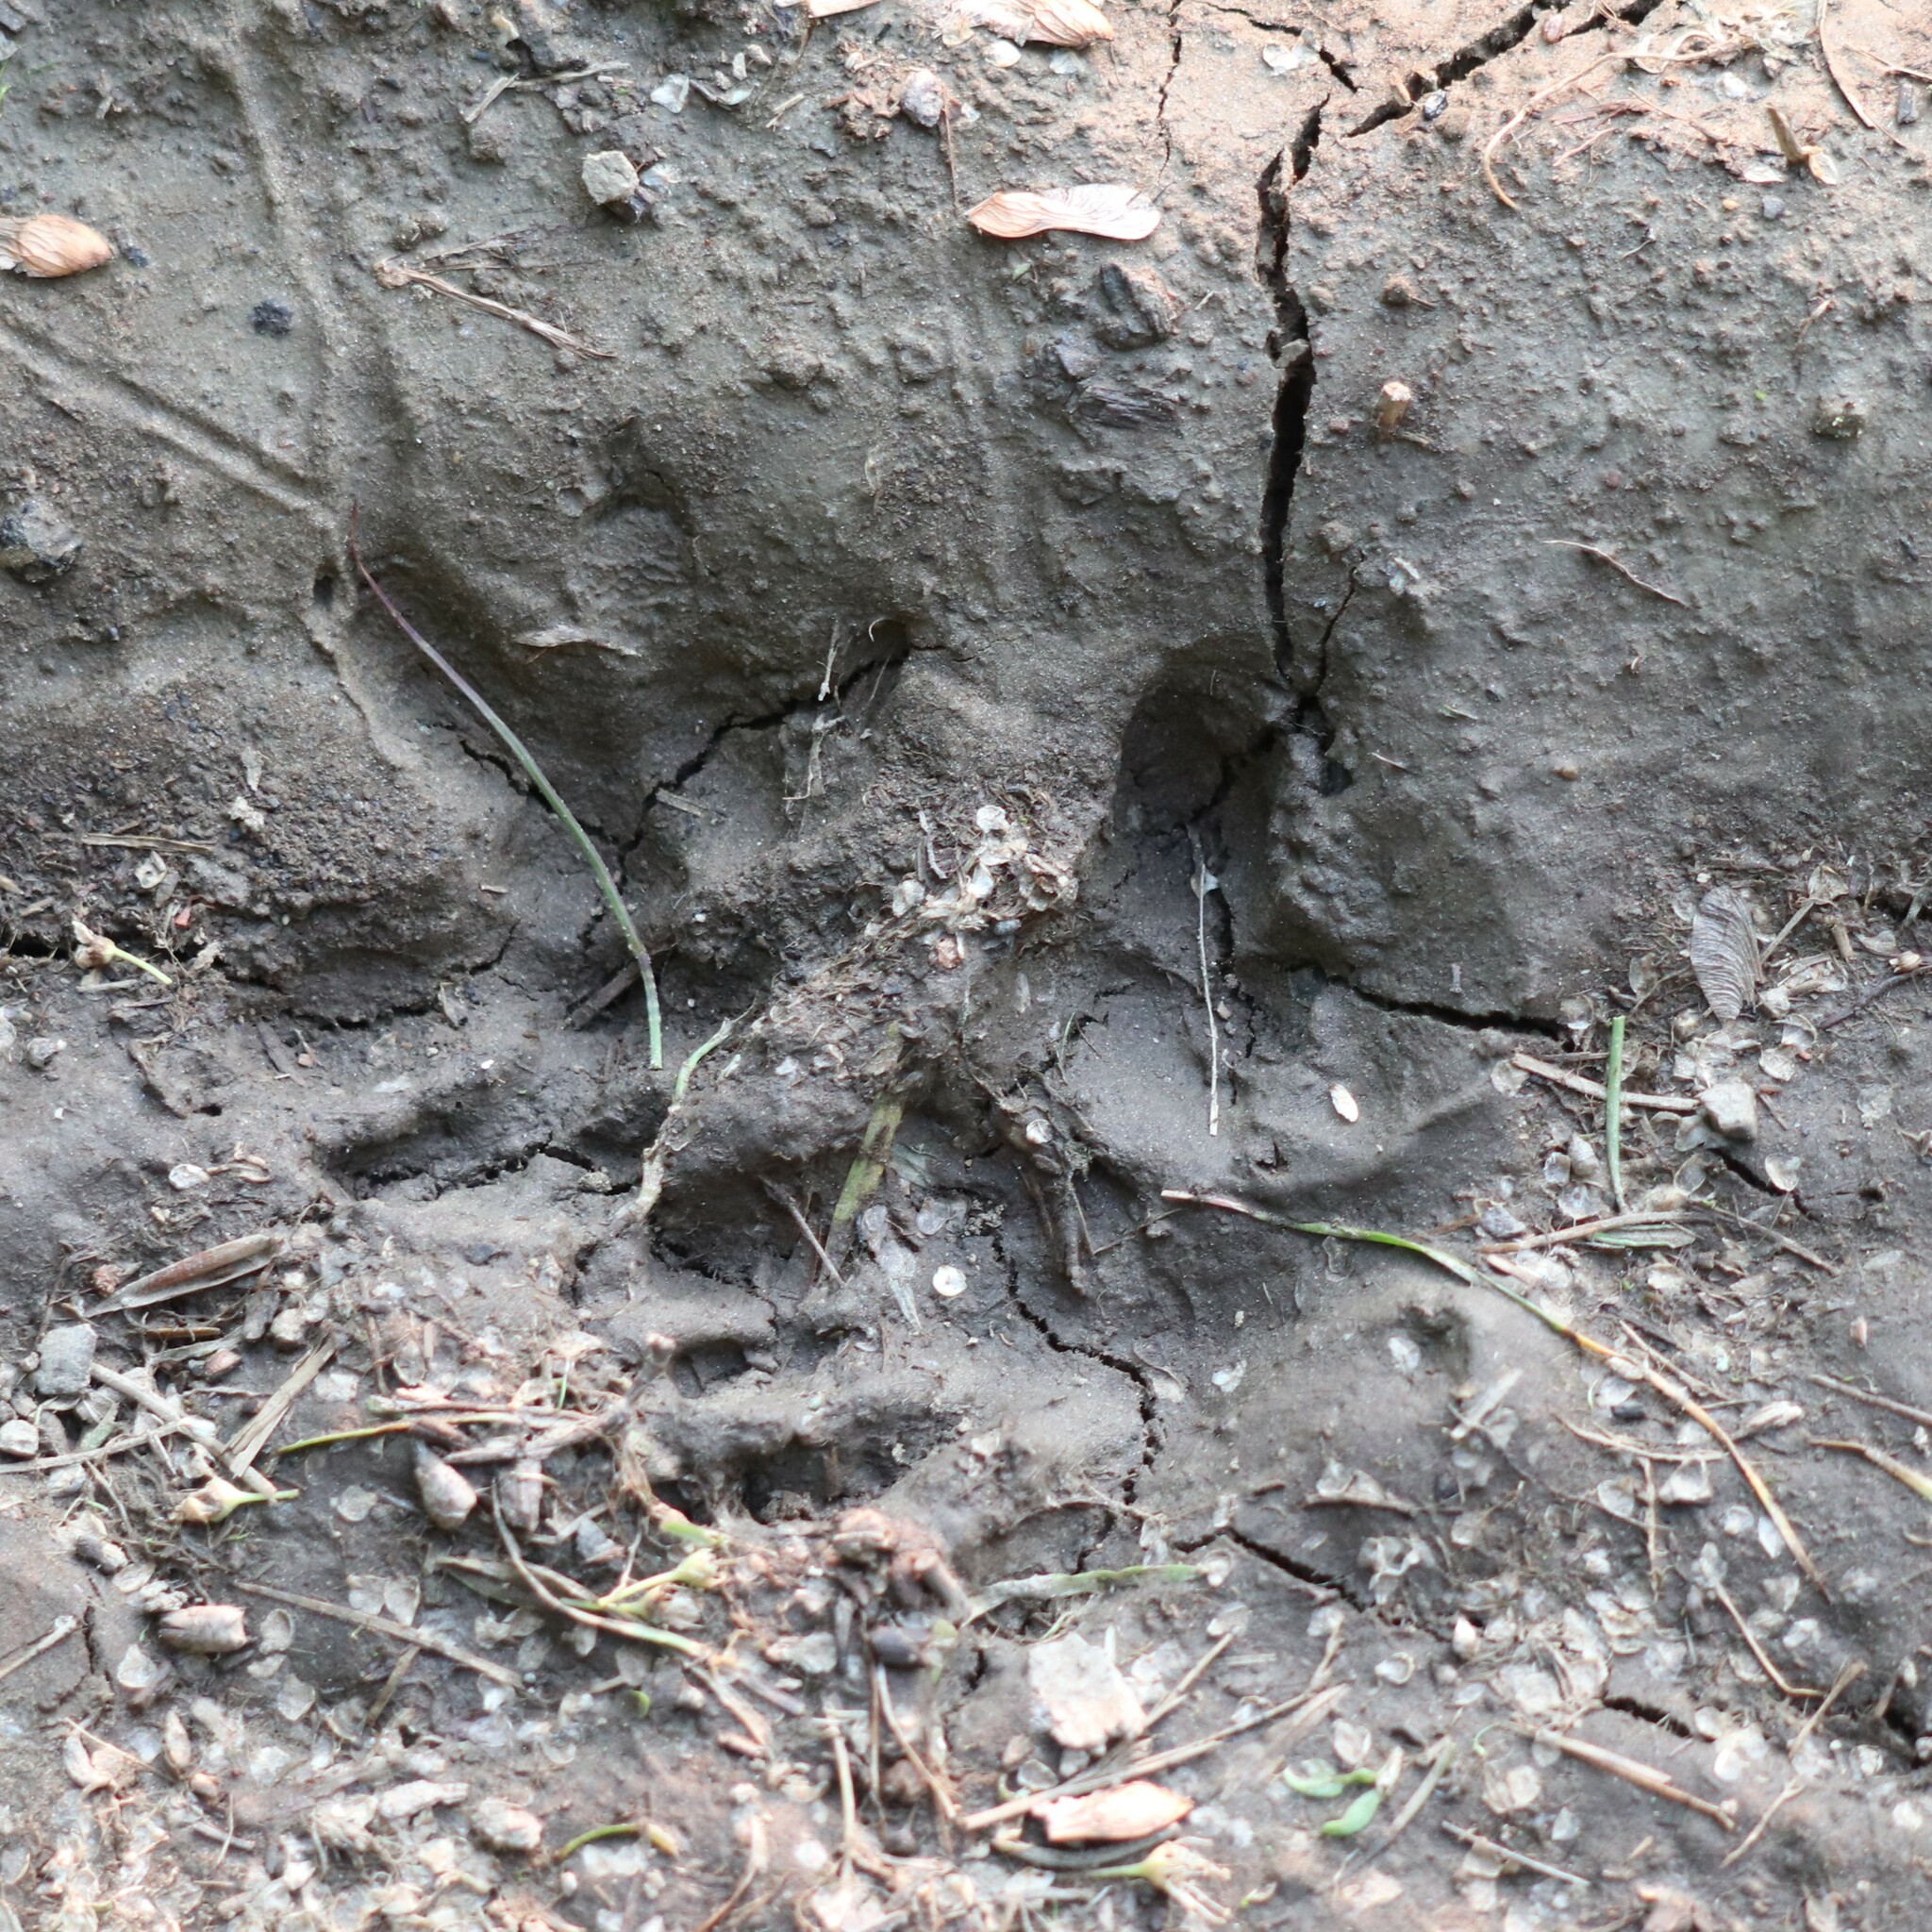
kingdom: Animalia
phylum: Chordata
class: Mammalia
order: Didelphimorphia
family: Didelphidae
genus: Didelphis
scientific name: Didelphis virginiana
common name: Virginia opossum
